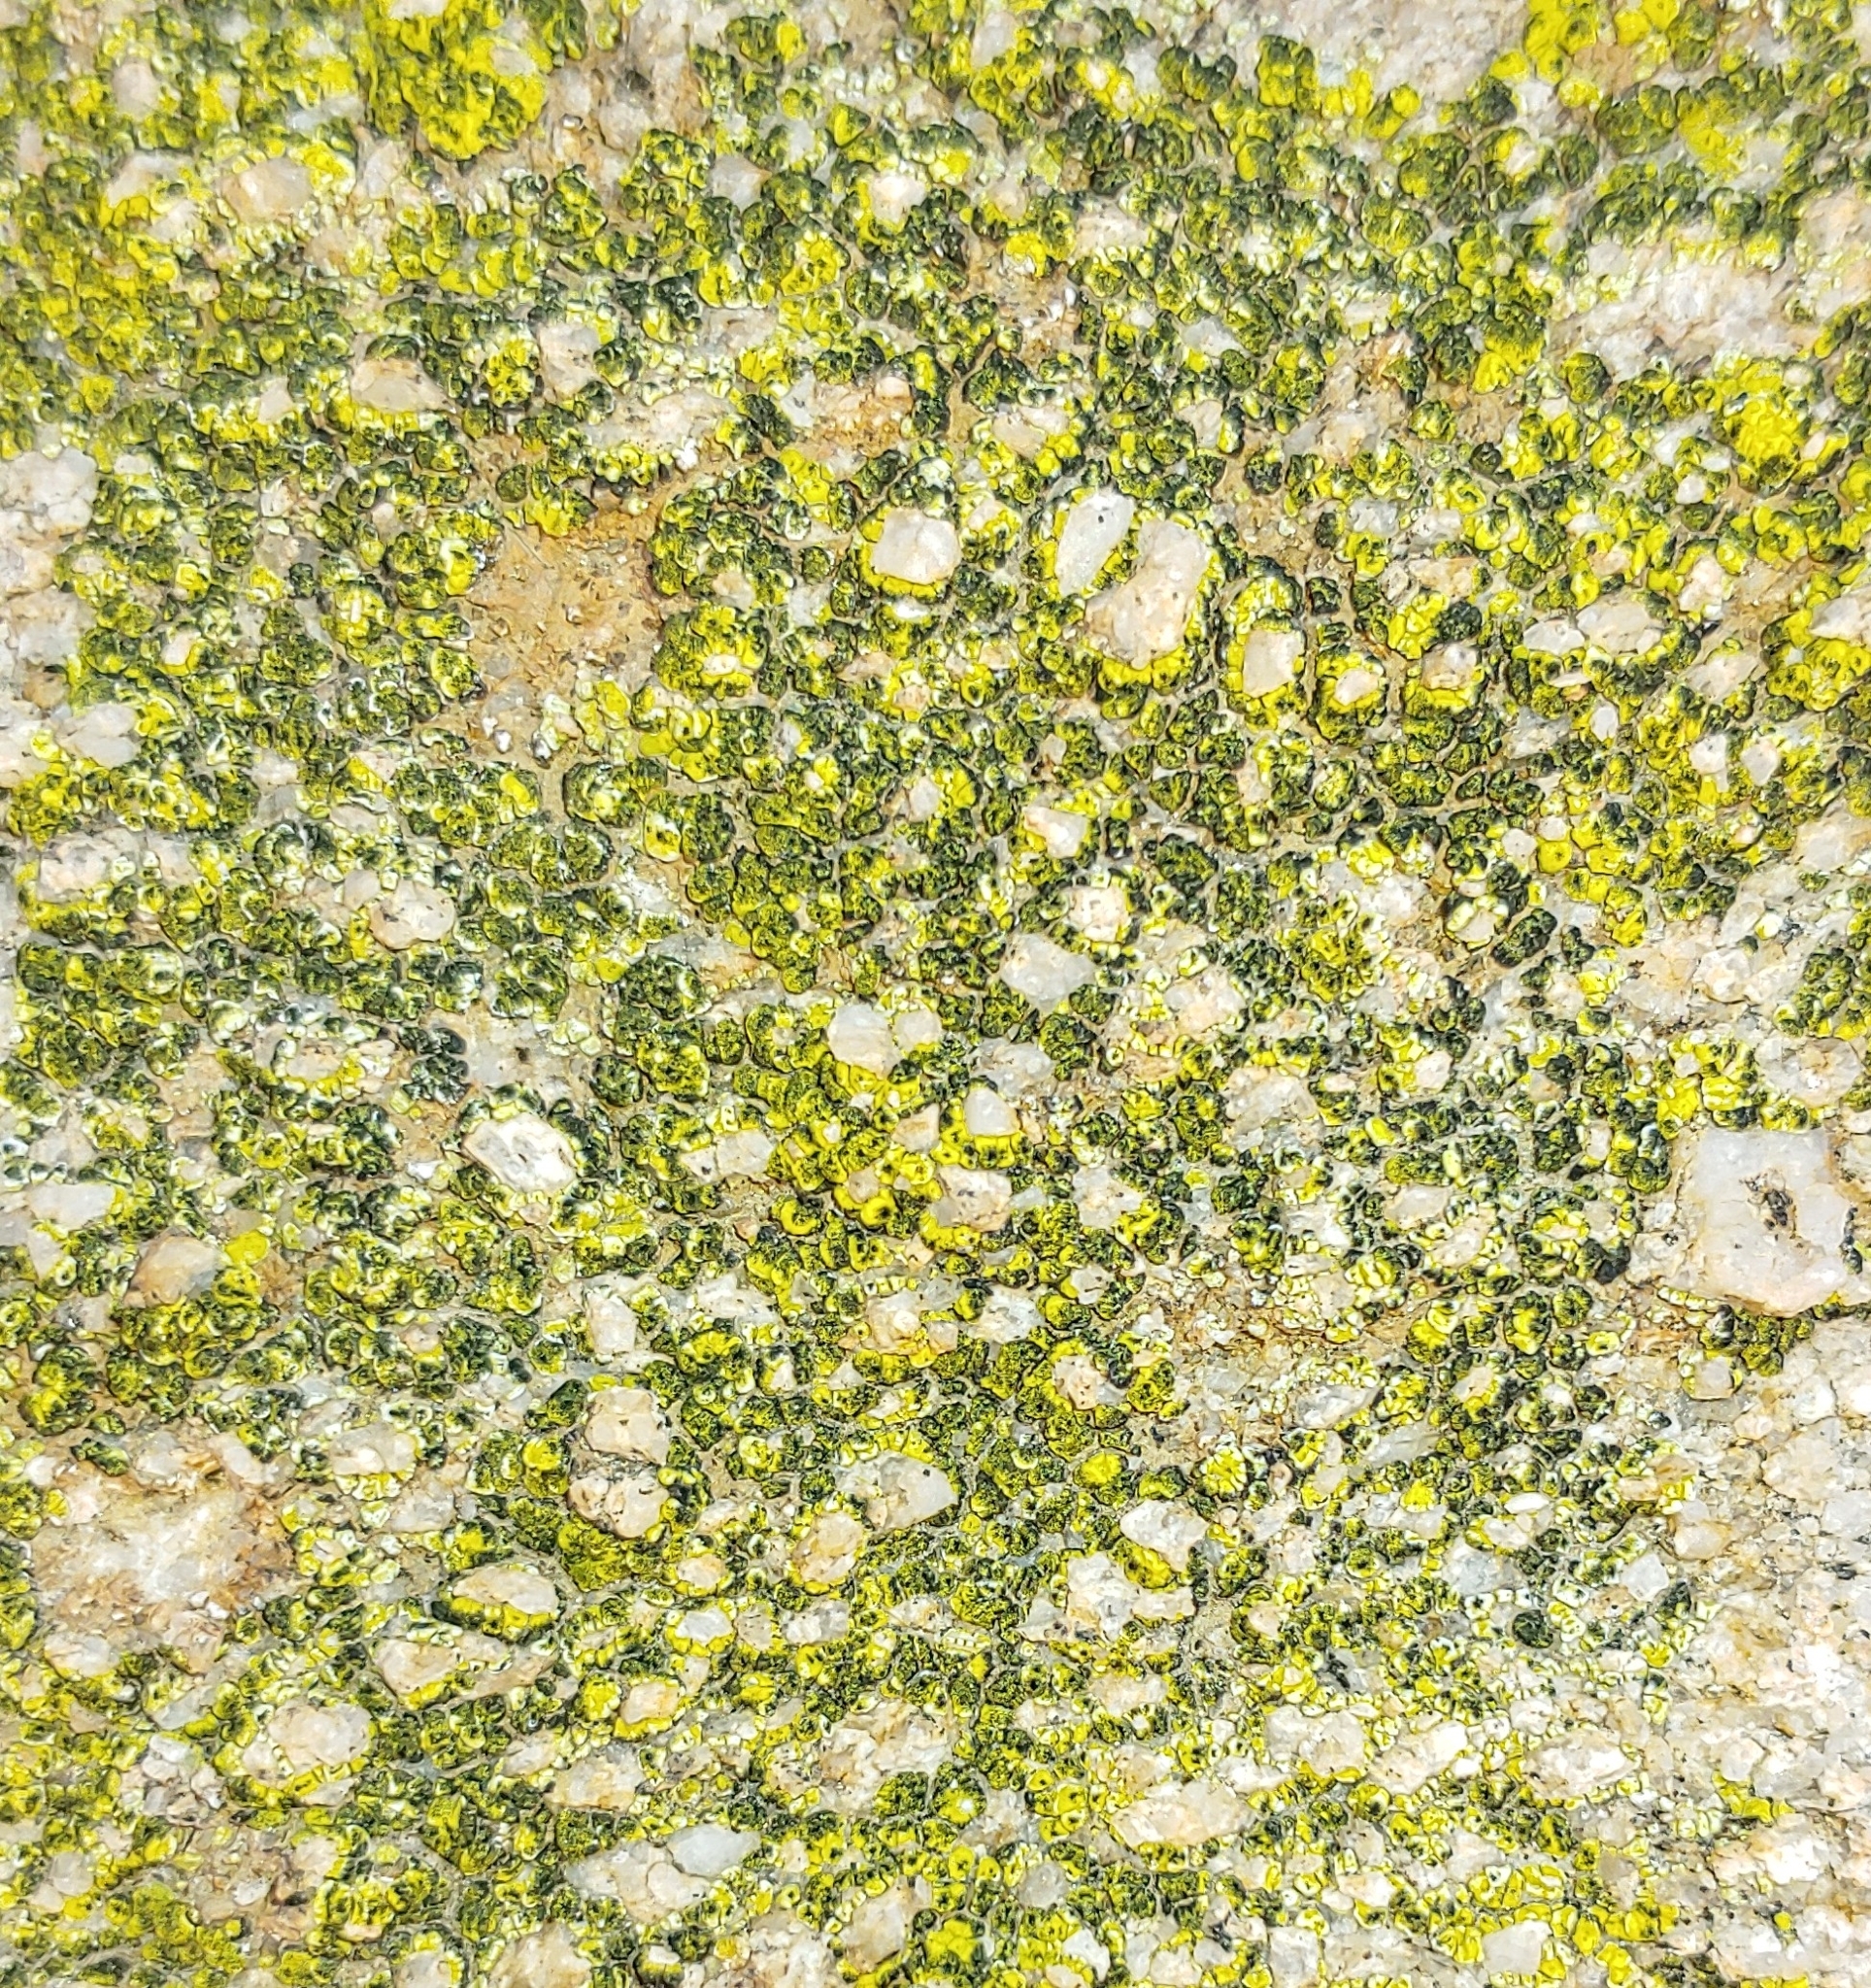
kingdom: Fungi
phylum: Ascomycota
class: Lecanoromycetes
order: Acarosporales
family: Acarosporaceae
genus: Acarospora
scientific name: Acarospora socialis
